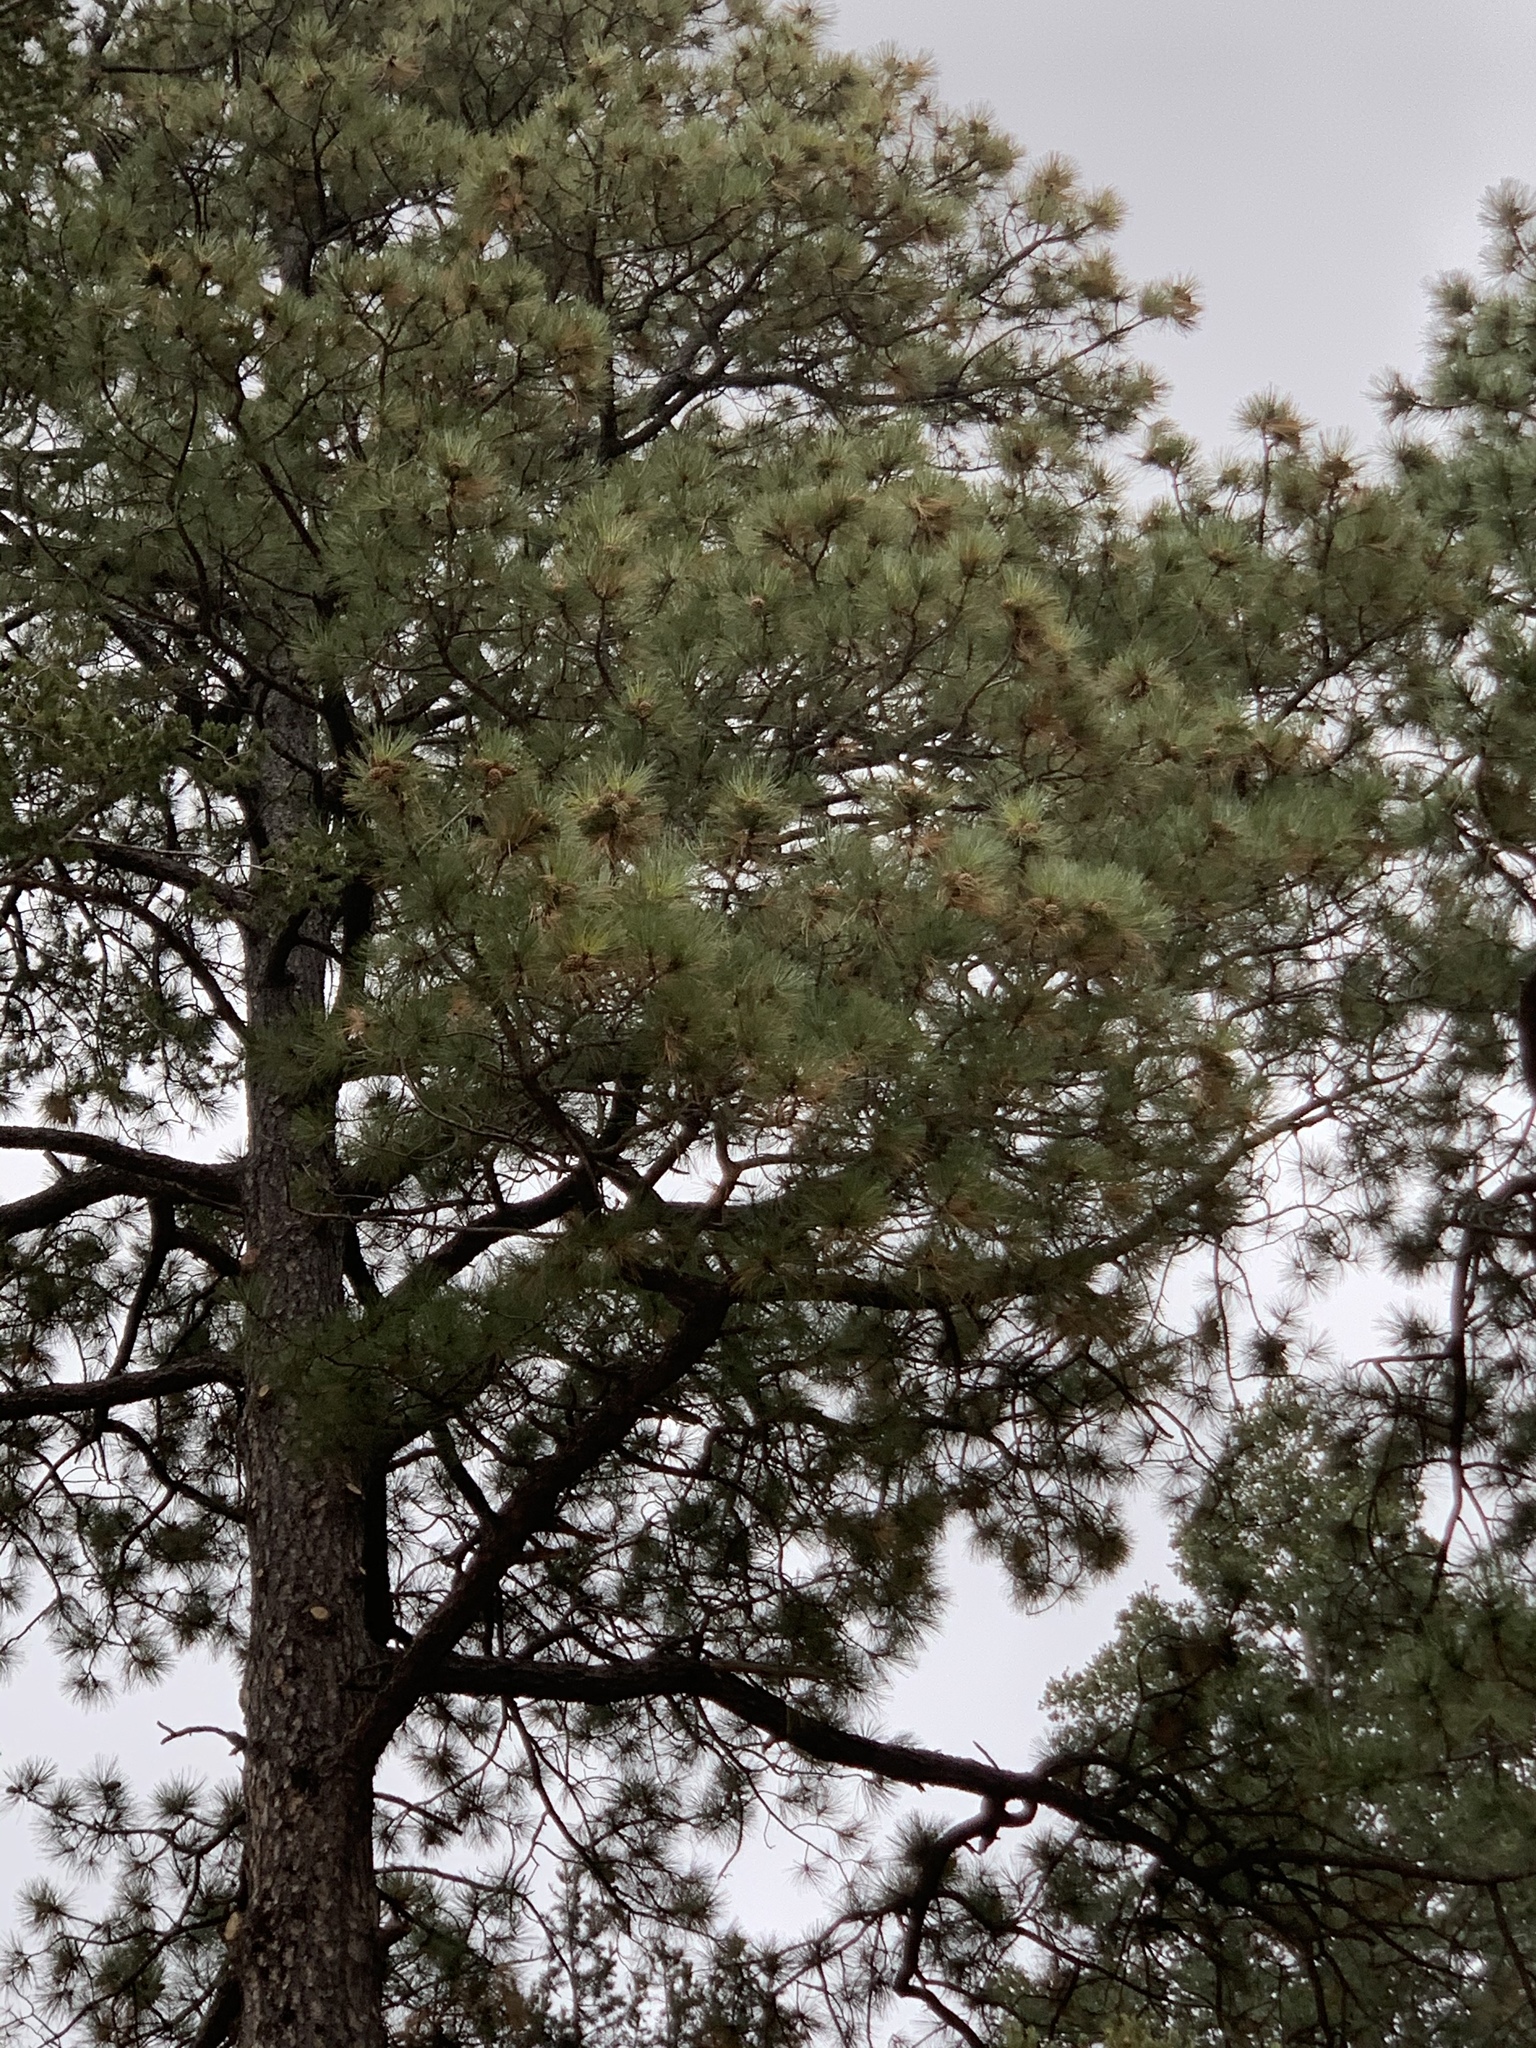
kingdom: Plantae
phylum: Tracheophyta
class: Pinopsida
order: Pinales
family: Pinaceae
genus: Pinus
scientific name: Pinus ponderosa
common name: Western yellow-pine
